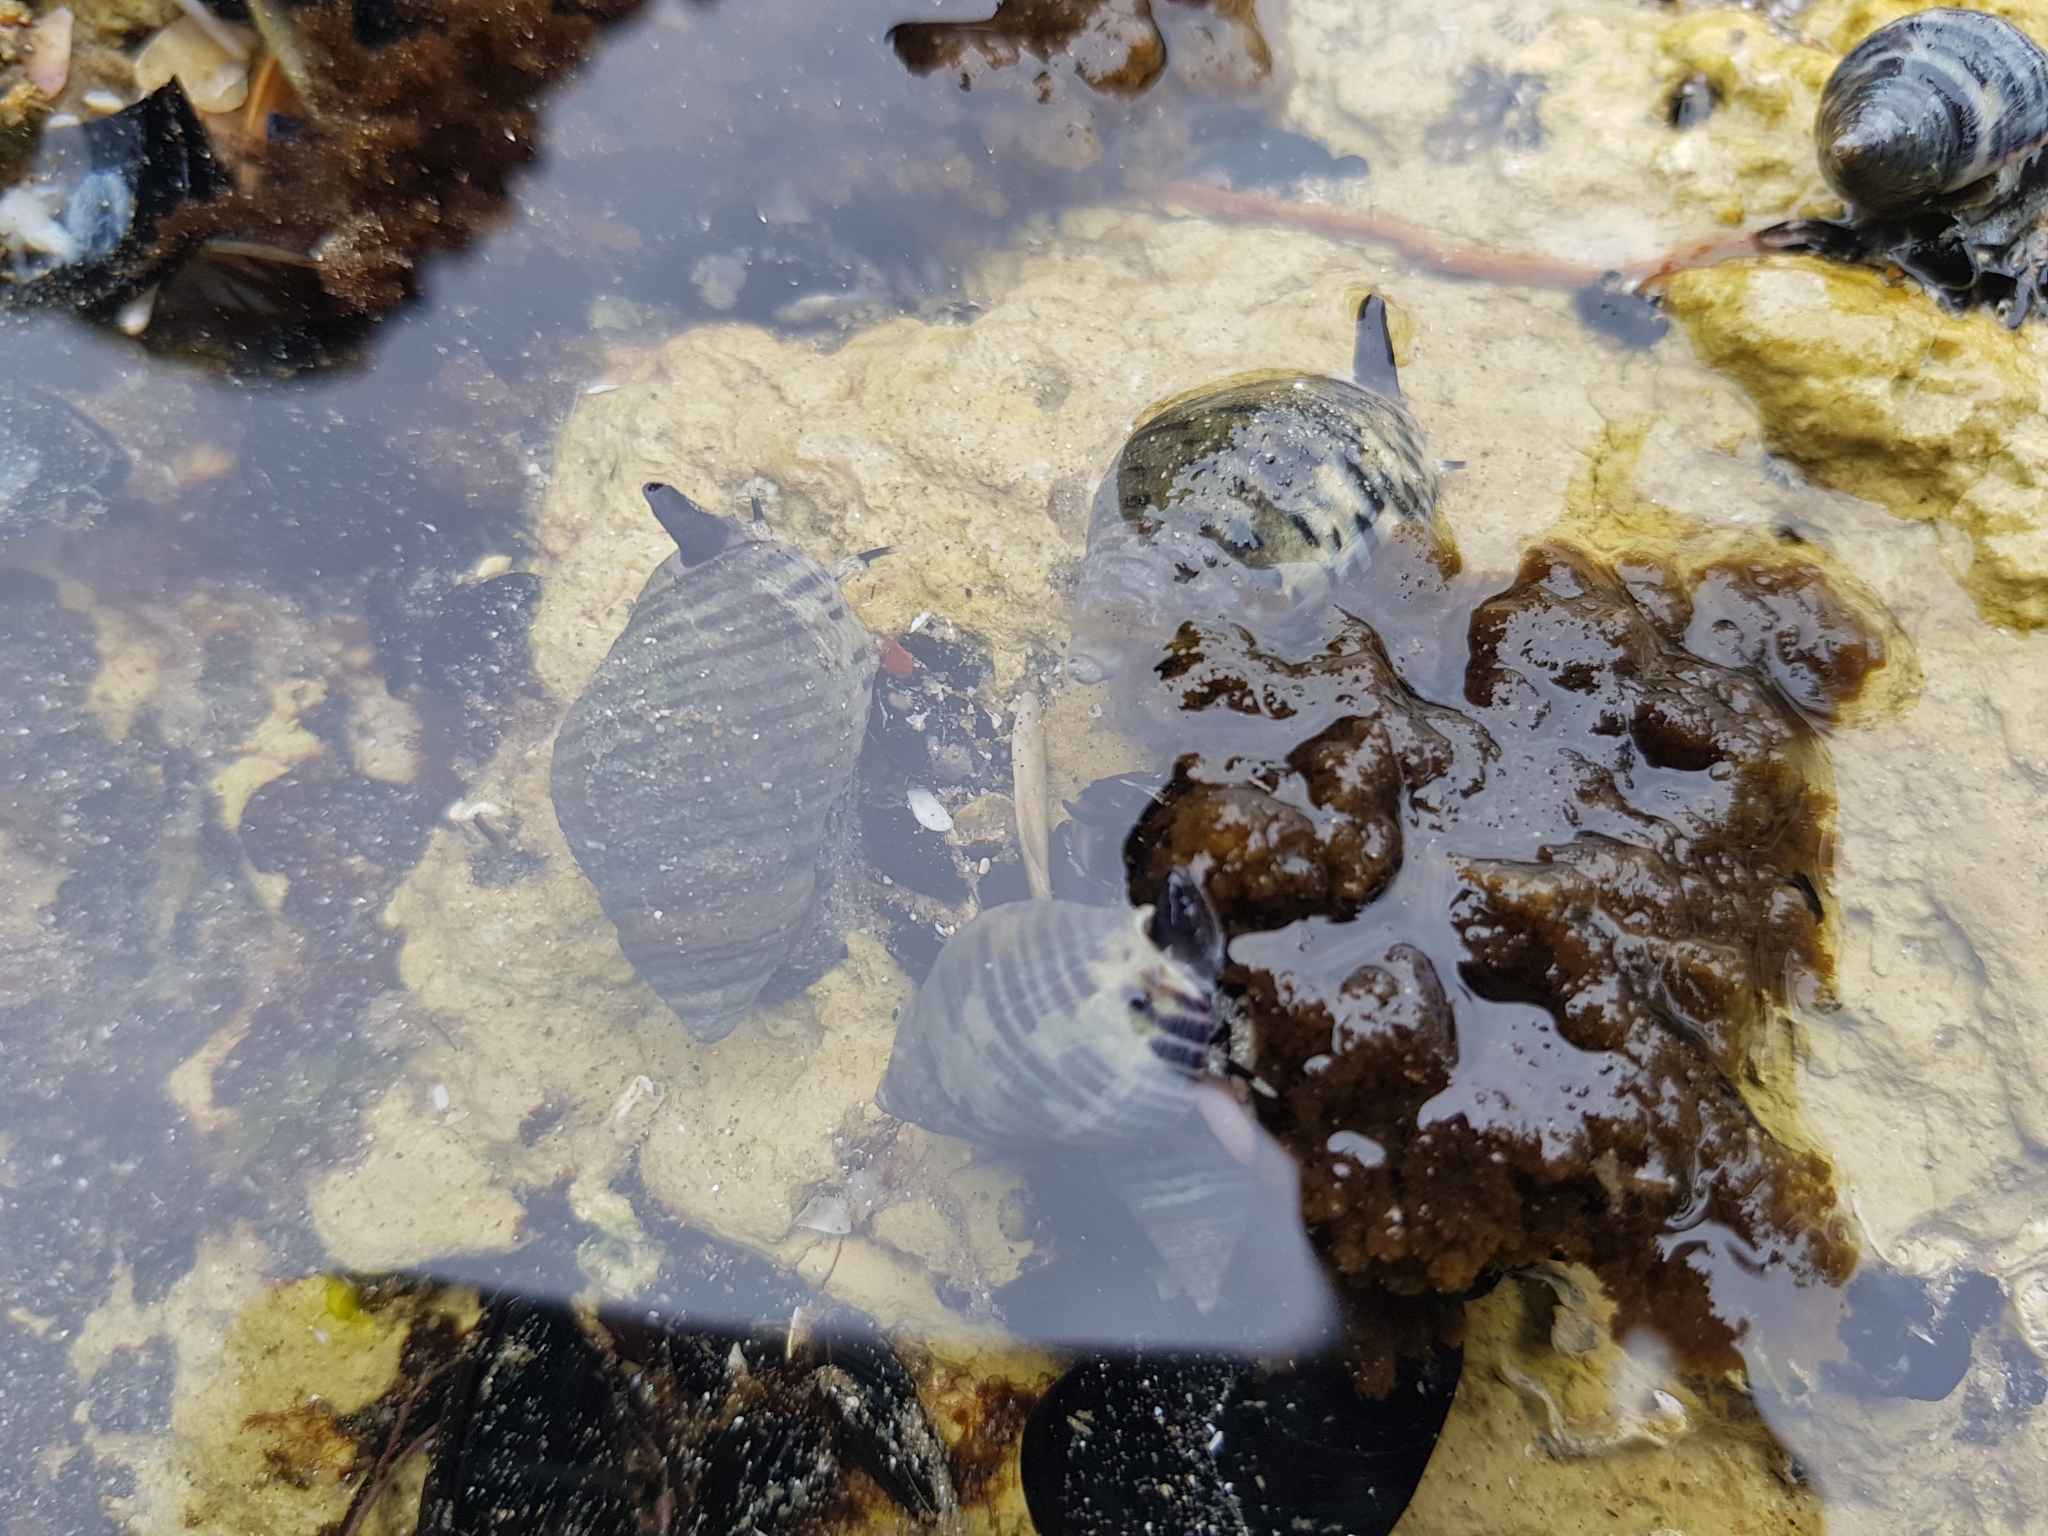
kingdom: Animalia
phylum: Mollusca
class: Gastropoda
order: Neogastropoda
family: Cominellidae
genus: Cominella
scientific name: Cominella lineolata
